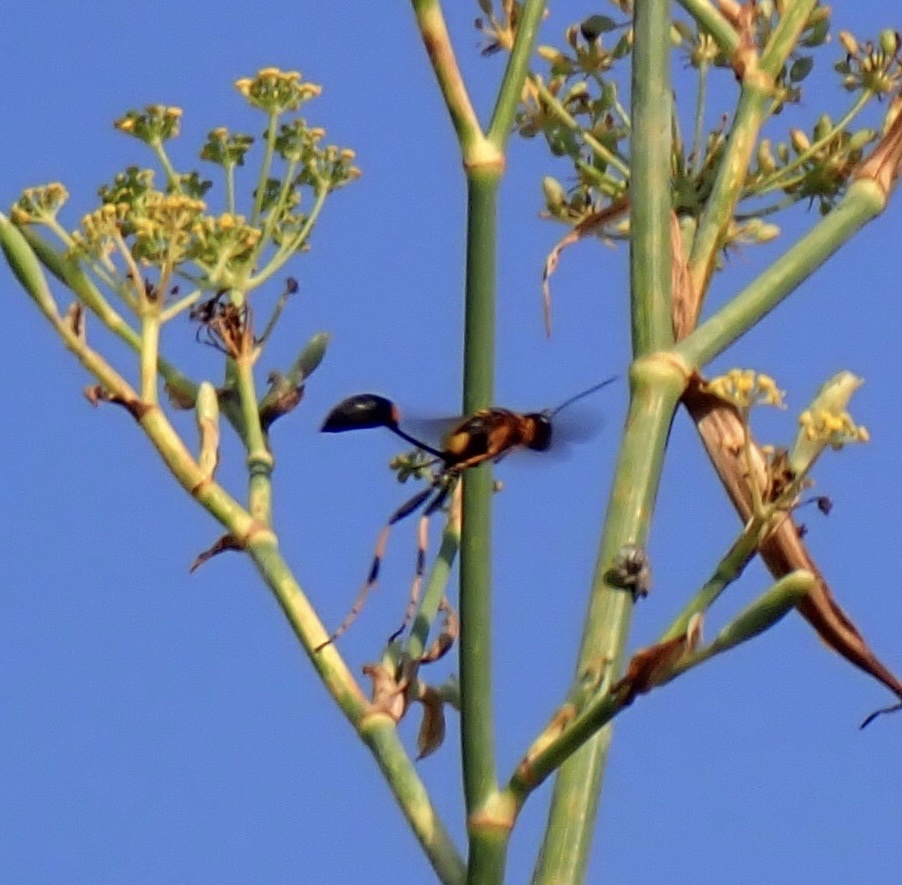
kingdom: Animalia
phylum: Arthropoda
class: Insecta
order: Hymenoptera
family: Sphecidae
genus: Sceliphron
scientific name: Sceliphron caementarium
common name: Mud dauber
